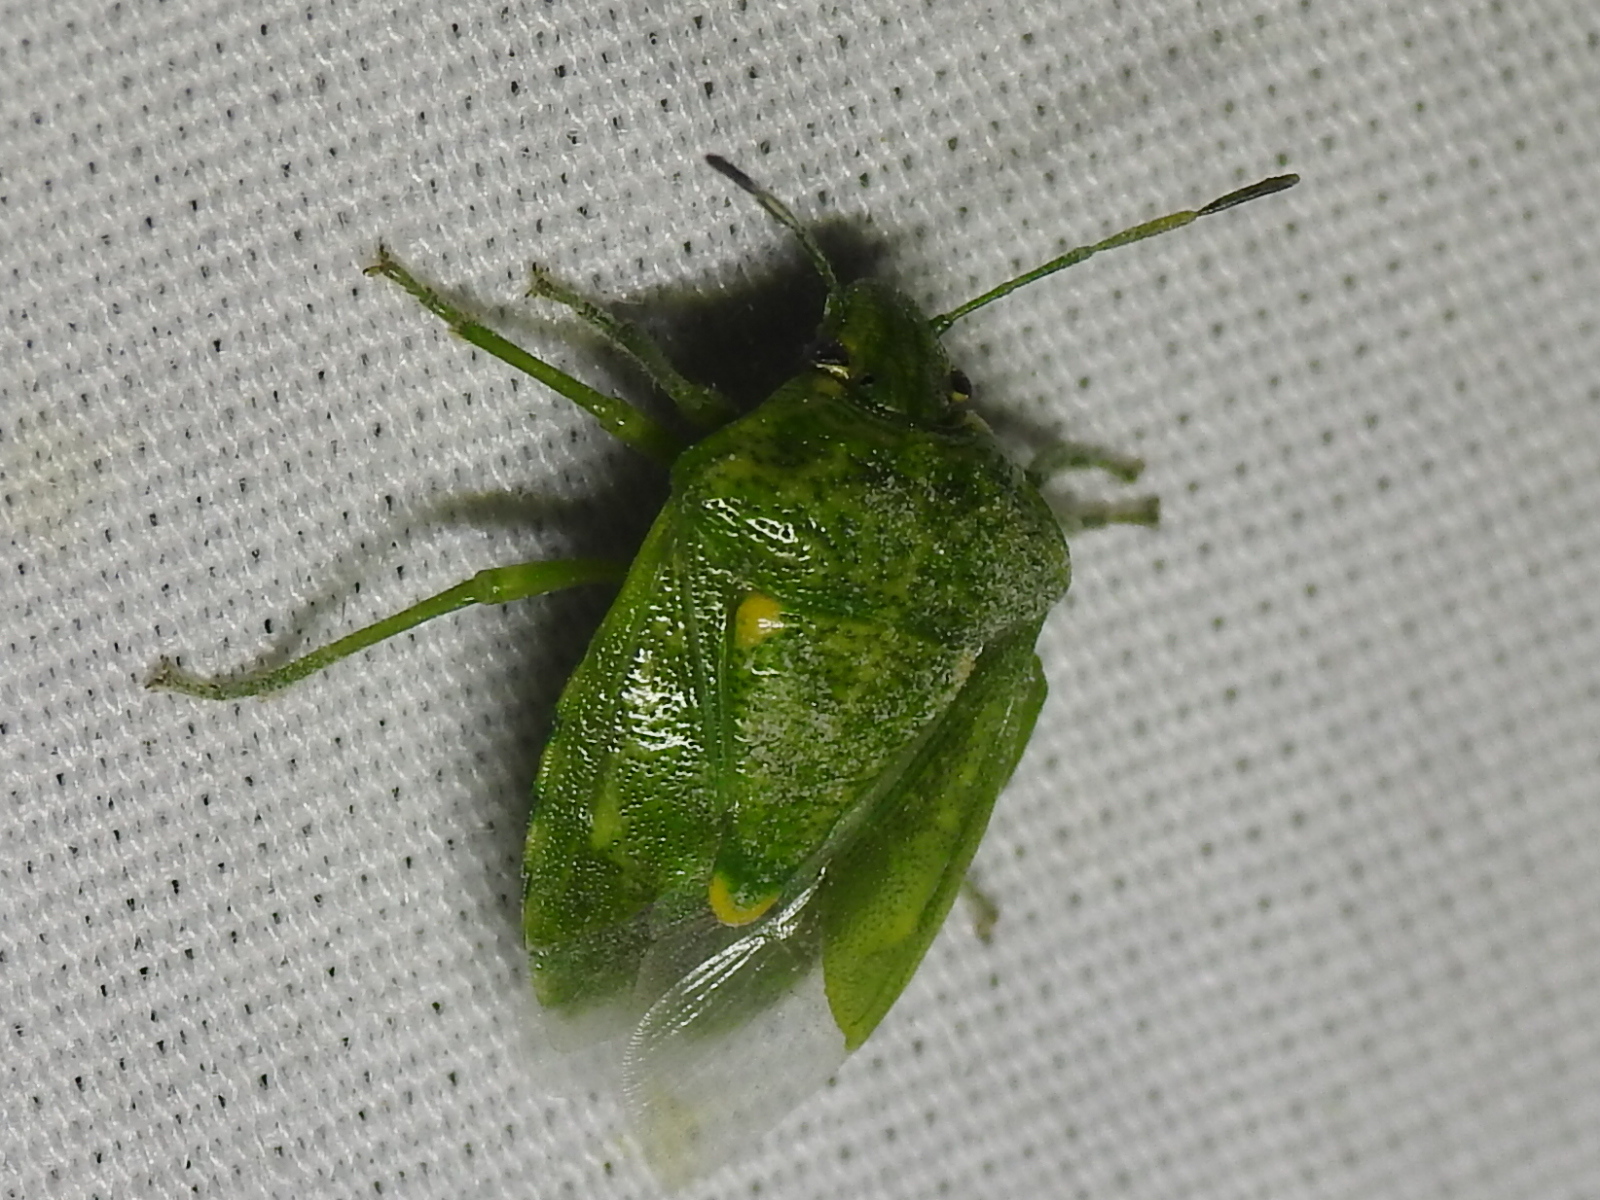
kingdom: Animalia
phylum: Arthropoda
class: Insecta
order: Hemiptera
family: Pentatomidae
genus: Banasa
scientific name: Banasa euchlora
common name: Cedar berry bug
